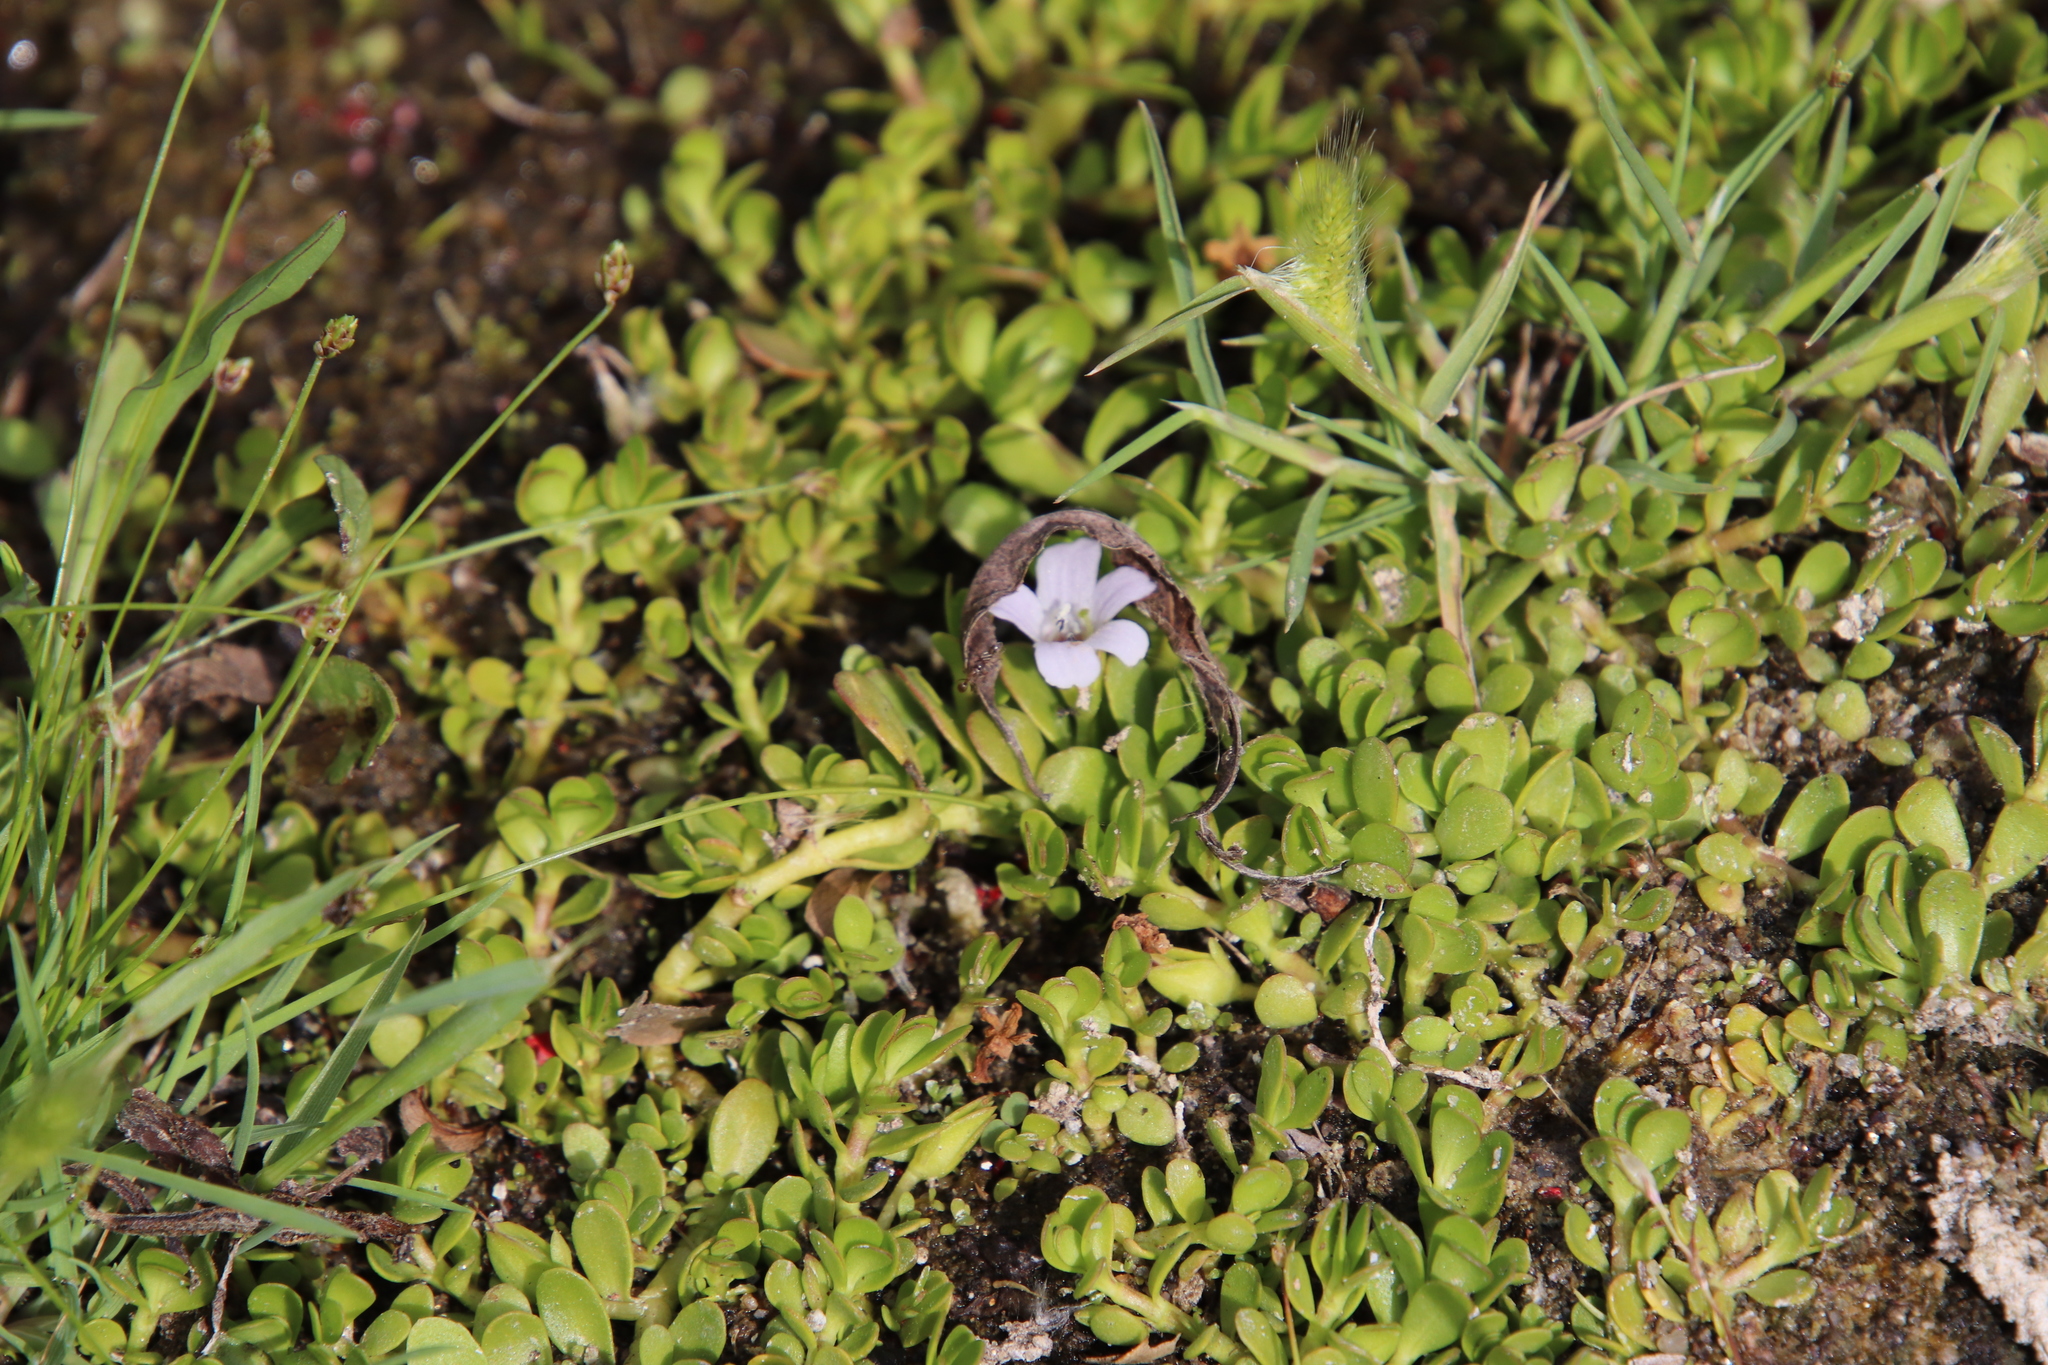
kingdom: Plantae
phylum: Tracheophyta
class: Magnoliopsida
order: Lamiales
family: Plantaginaceae
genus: Bacopa
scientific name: Bacopa monnieri
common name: Indian-pennywort
